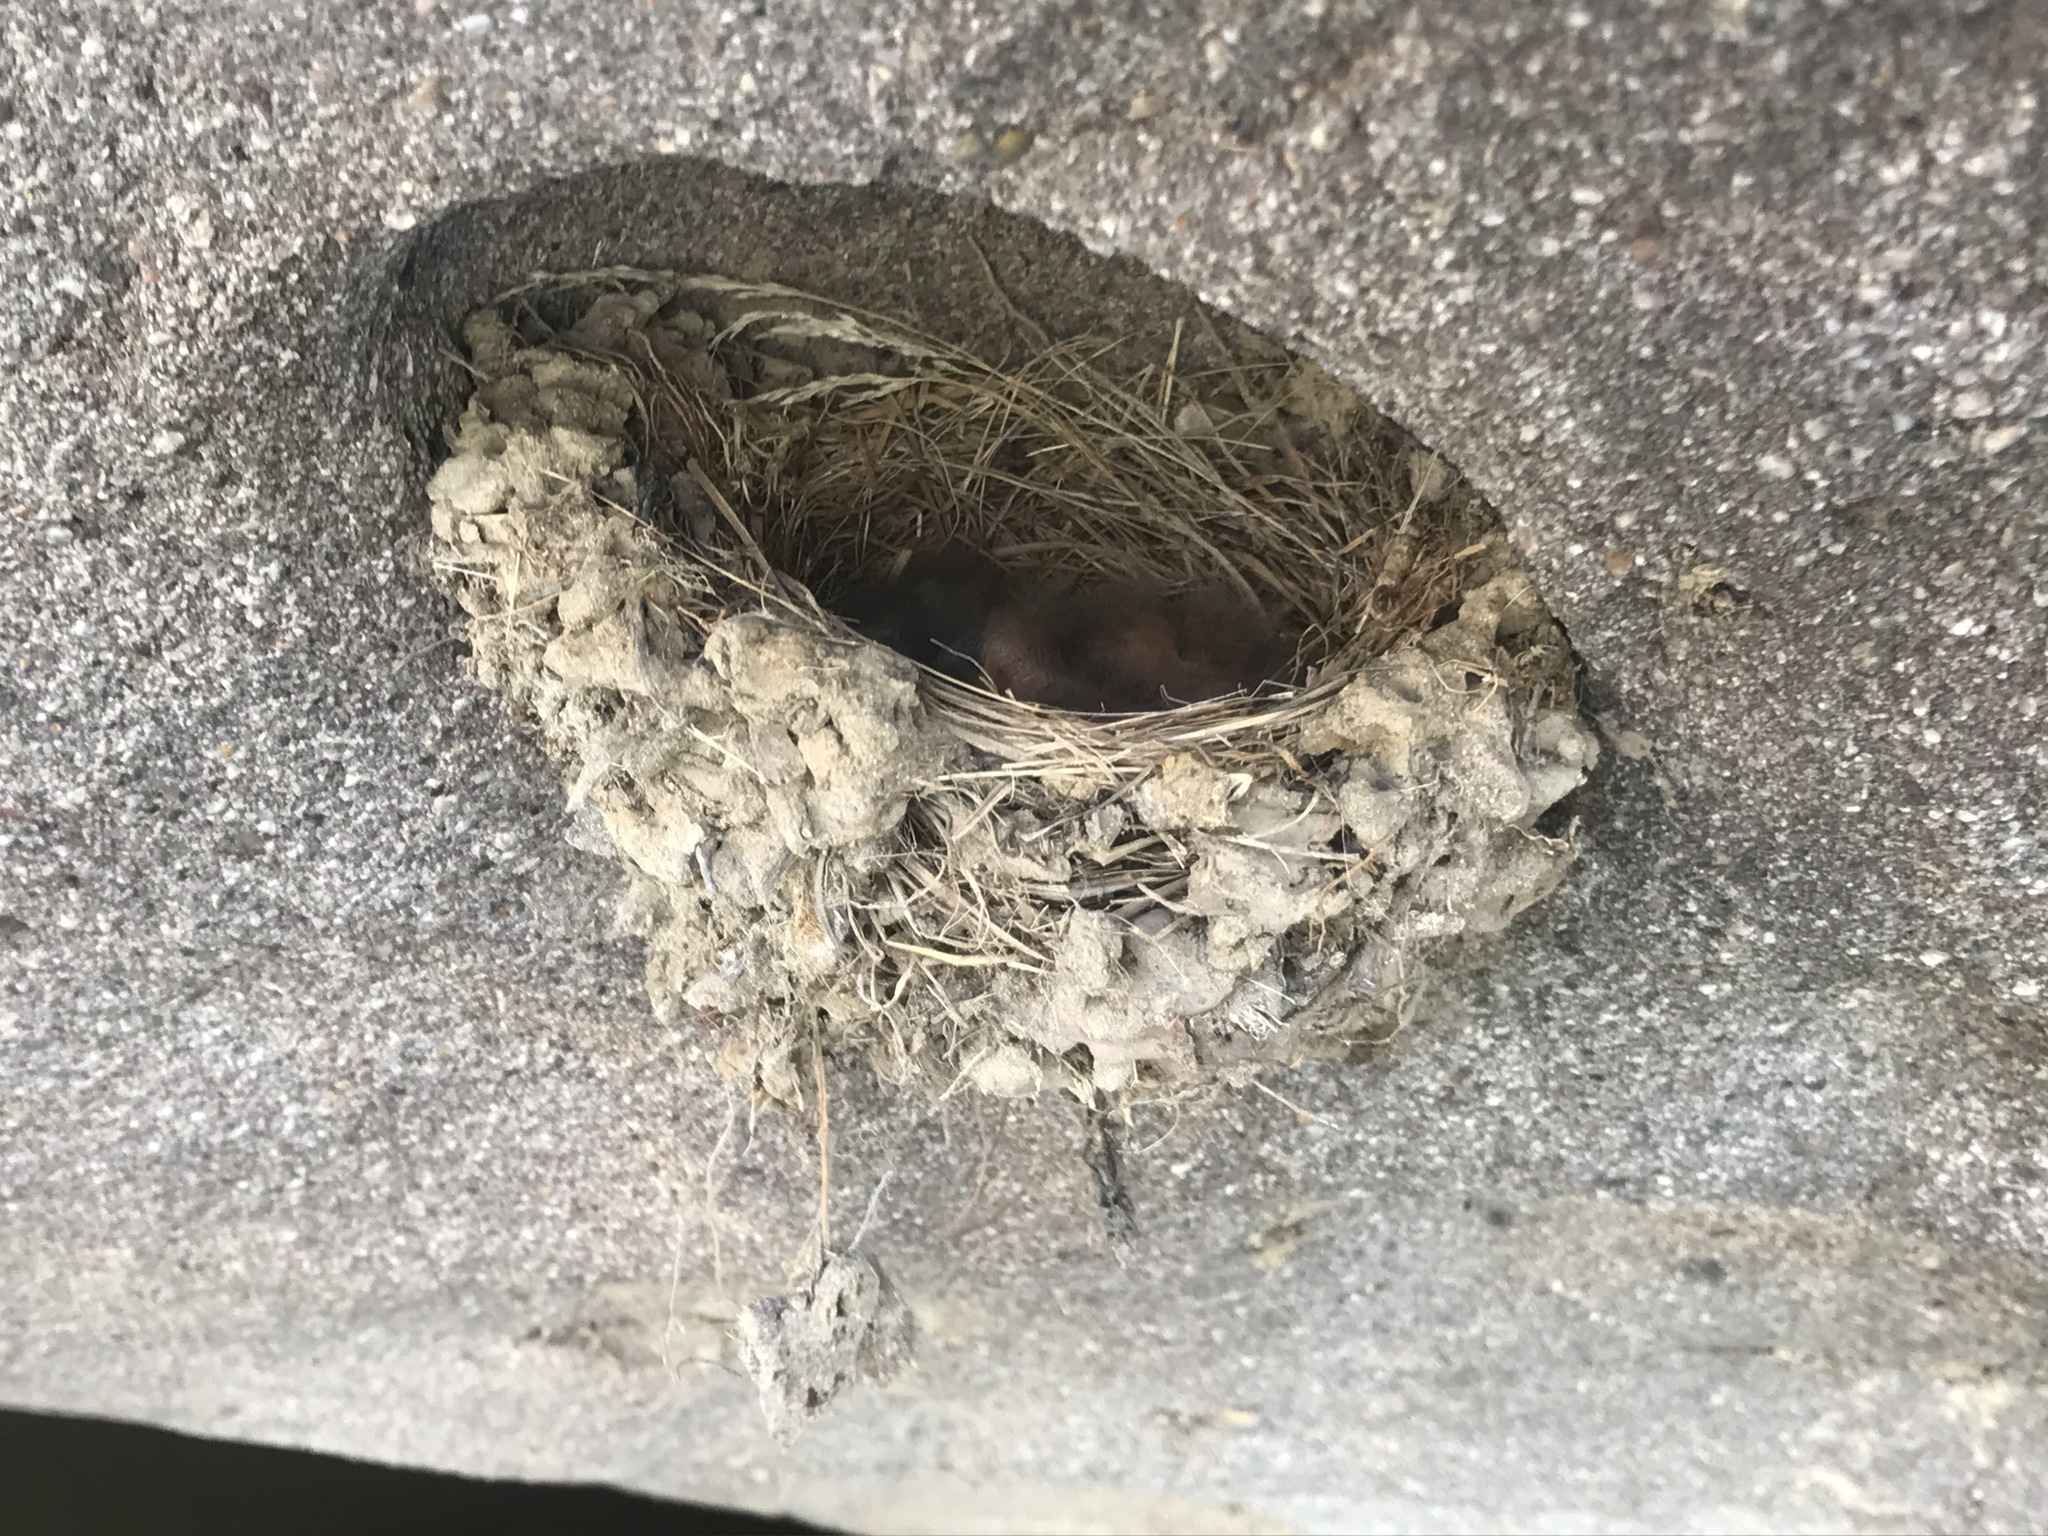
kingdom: Animalia
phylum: Chordata
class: Aves
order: Passeriformes
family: Tyrannidae
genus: Sayornis
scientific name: Sayornis nigricans
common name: Black phoebe
